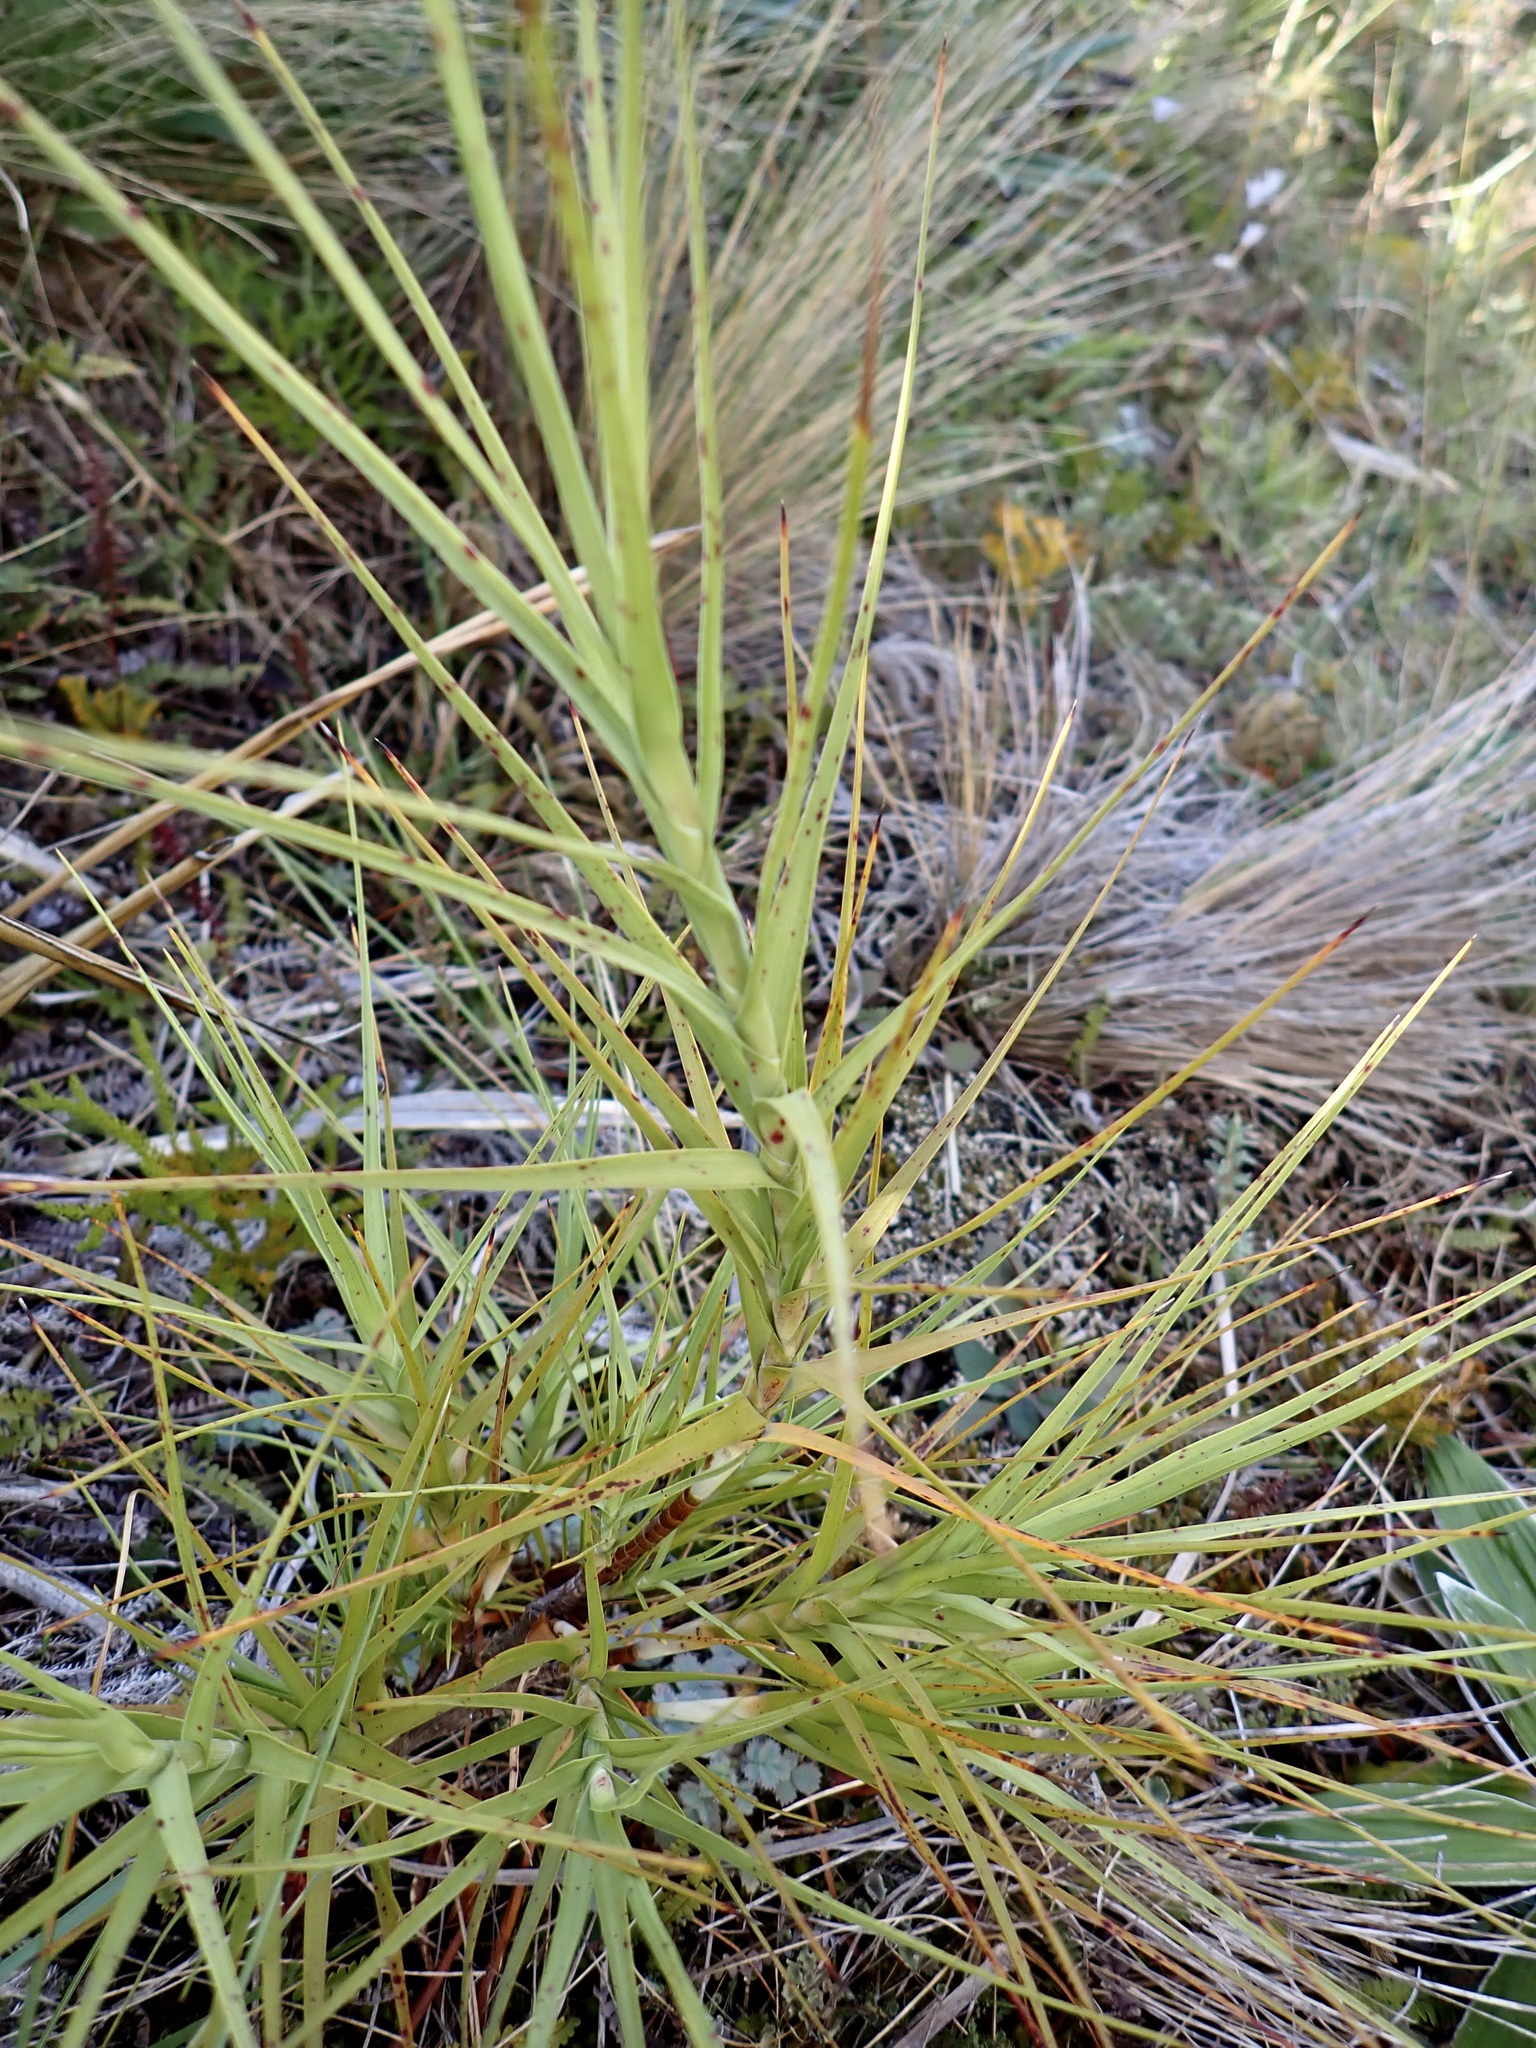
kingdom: Plantae
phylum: Tracheophyta
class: Magnoliopsida
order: Ericales
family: Ericaceae
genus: Dracophyllum
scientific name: Dracophyllum longifolium
